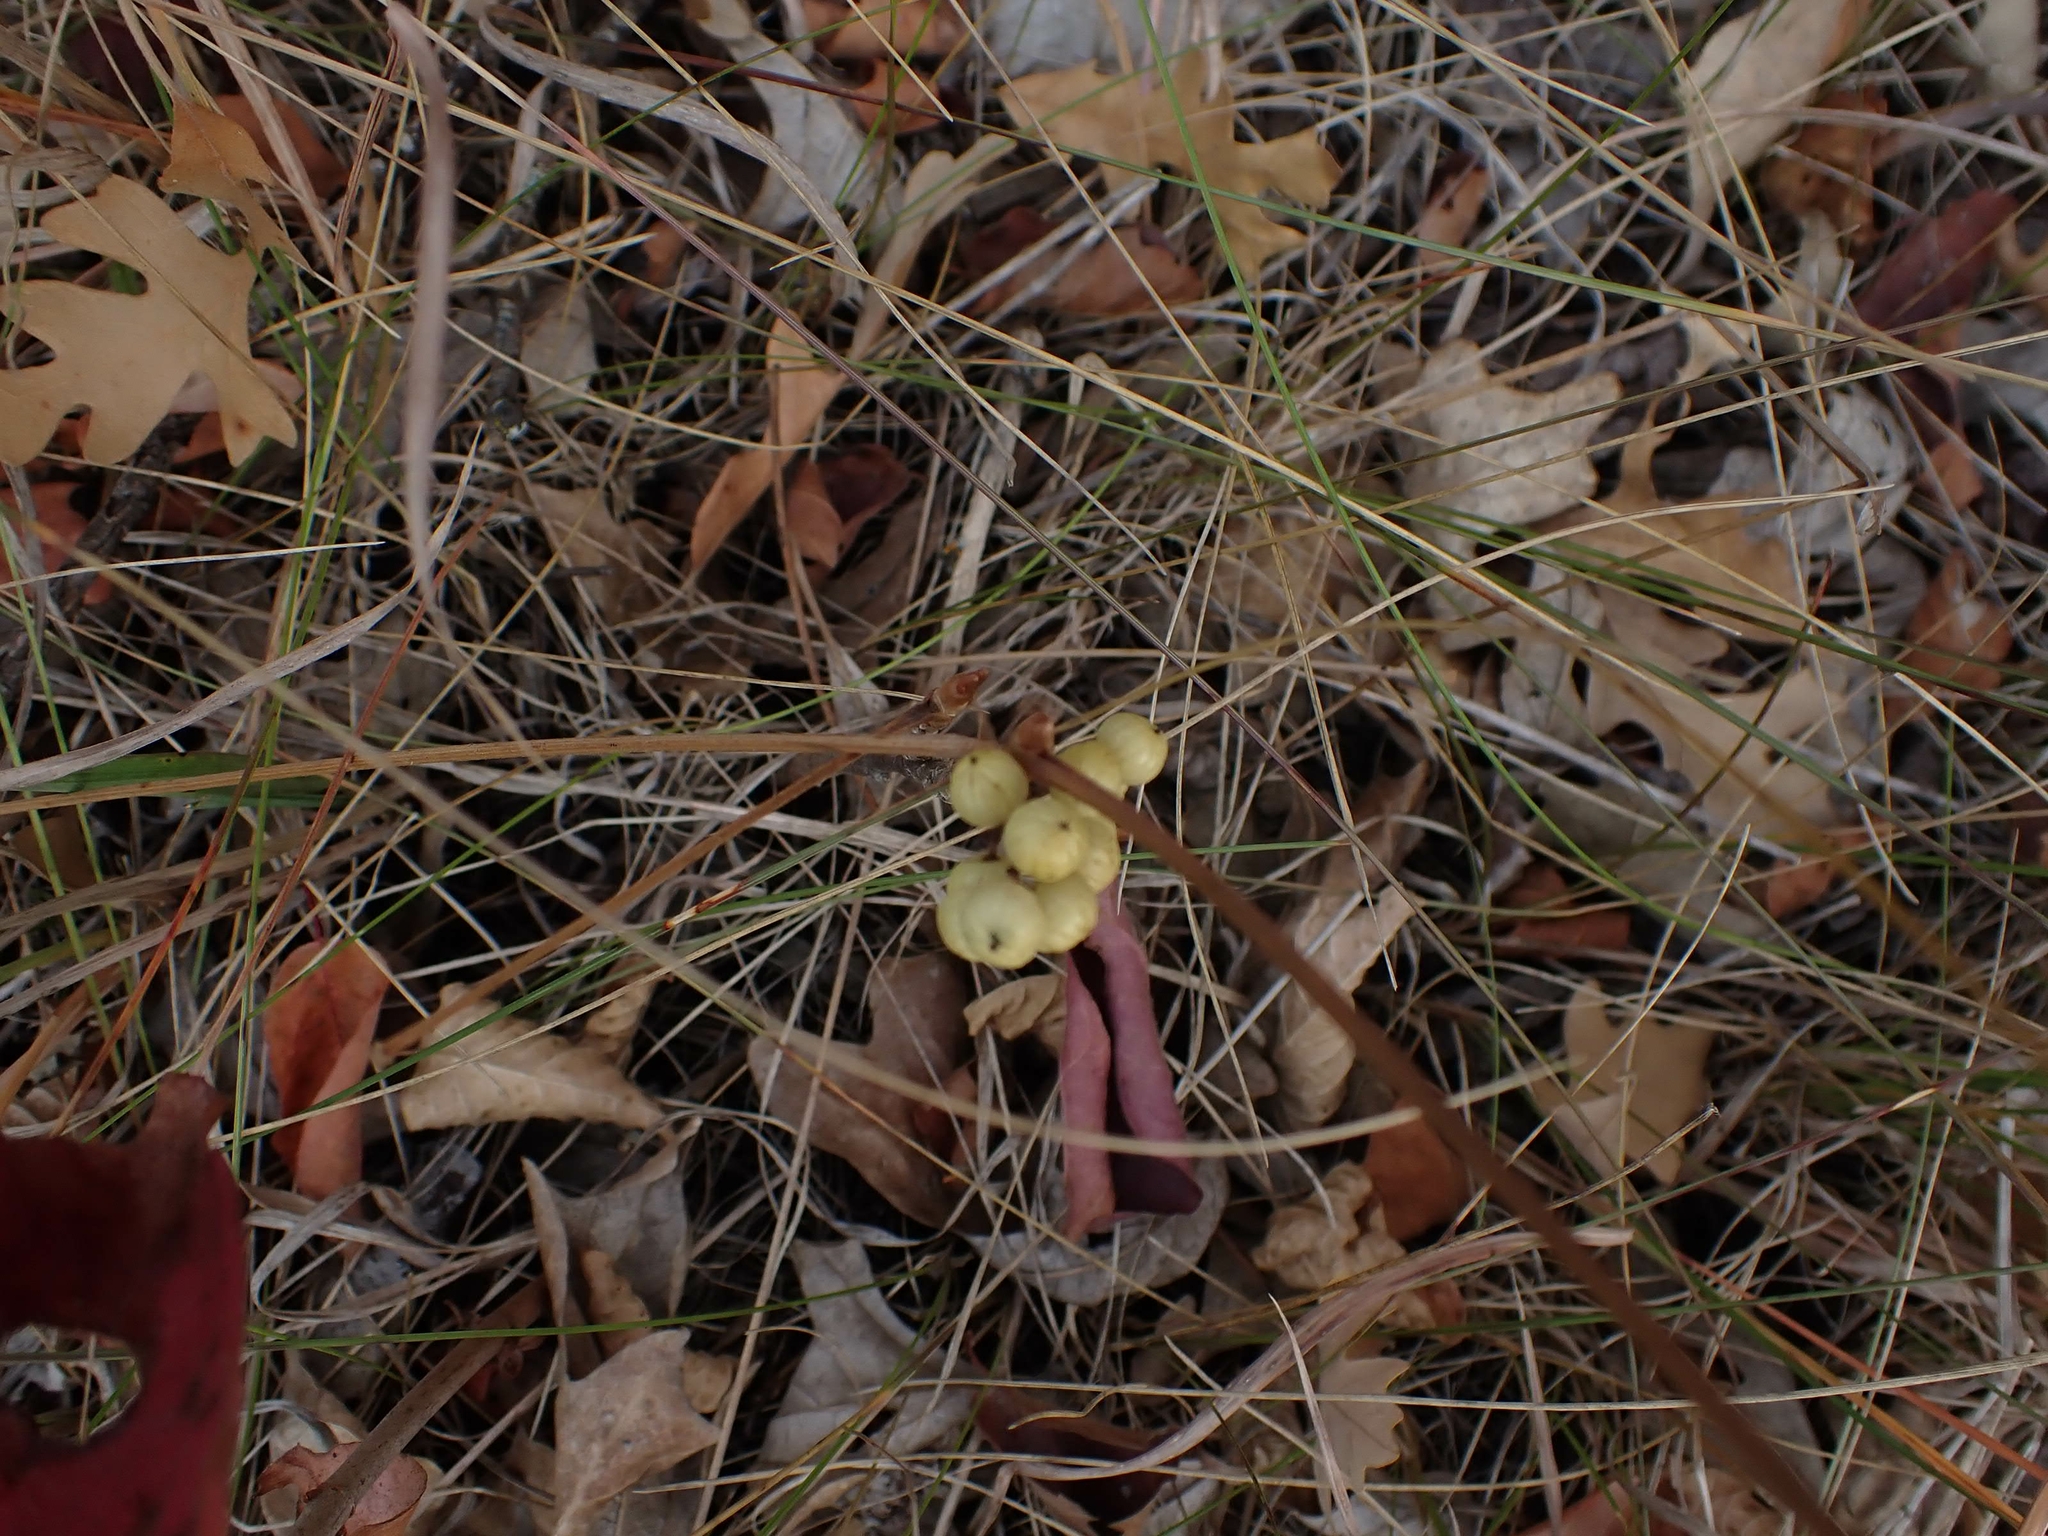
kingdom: Plantae
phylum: Tracheophyta
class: Magnoliopsida
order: Sapindales
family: Anacardiaceae
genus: Toxicodendron
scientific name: Toxicodendron rydbergii
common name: Rydberg's poison-ivy
